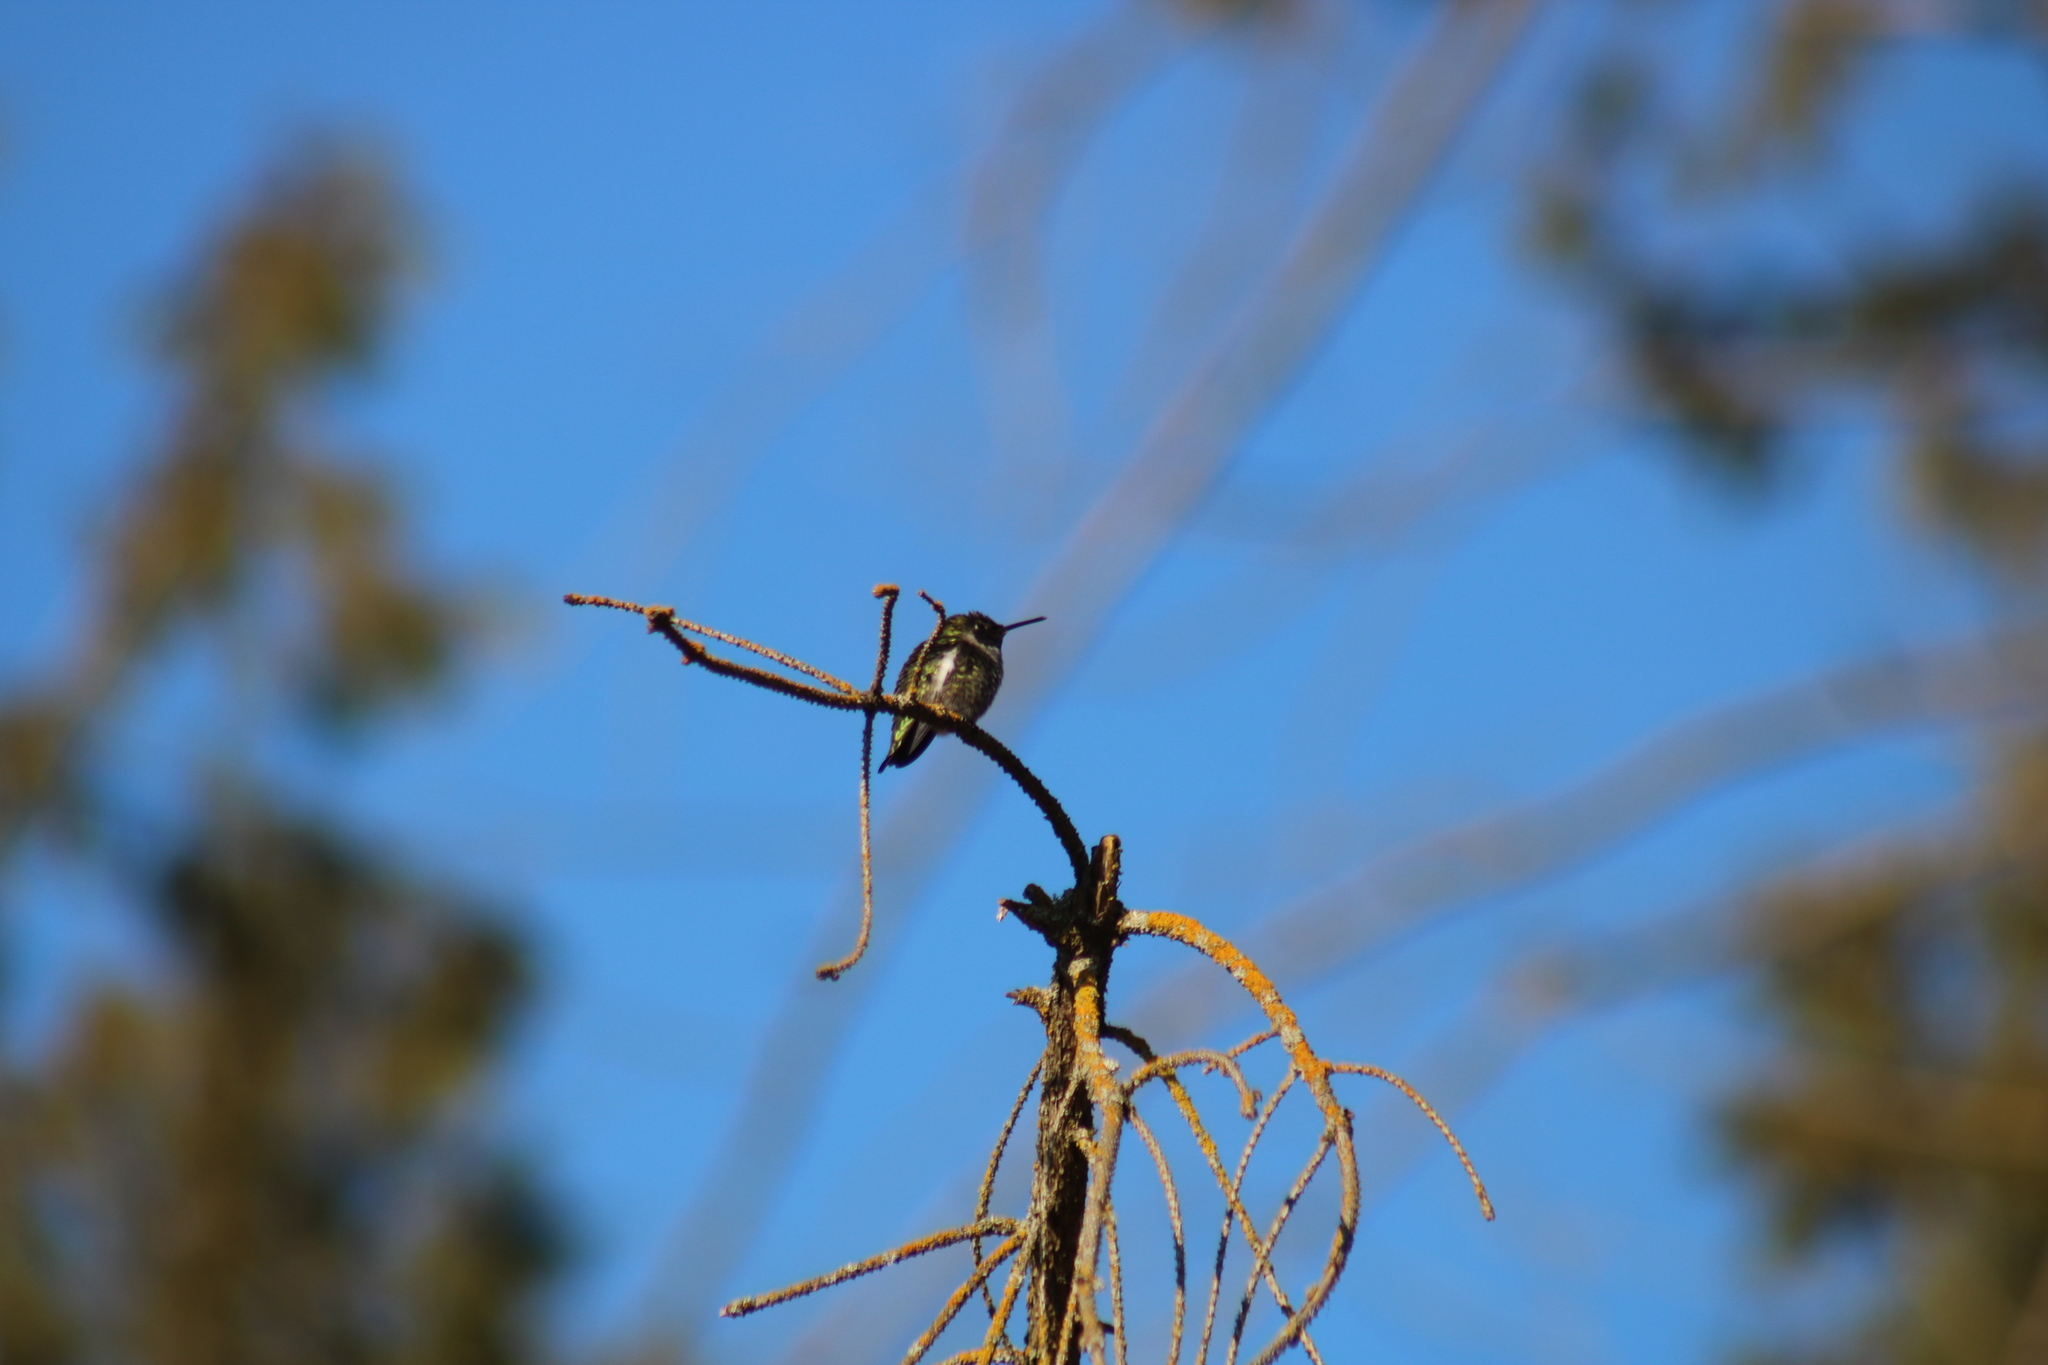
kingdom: Animalia
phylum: Chordata
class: Aves
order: Apodiformes
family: Trochilidae
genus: Calypte
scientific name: Calypte anna
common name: Anna's hummingbird
